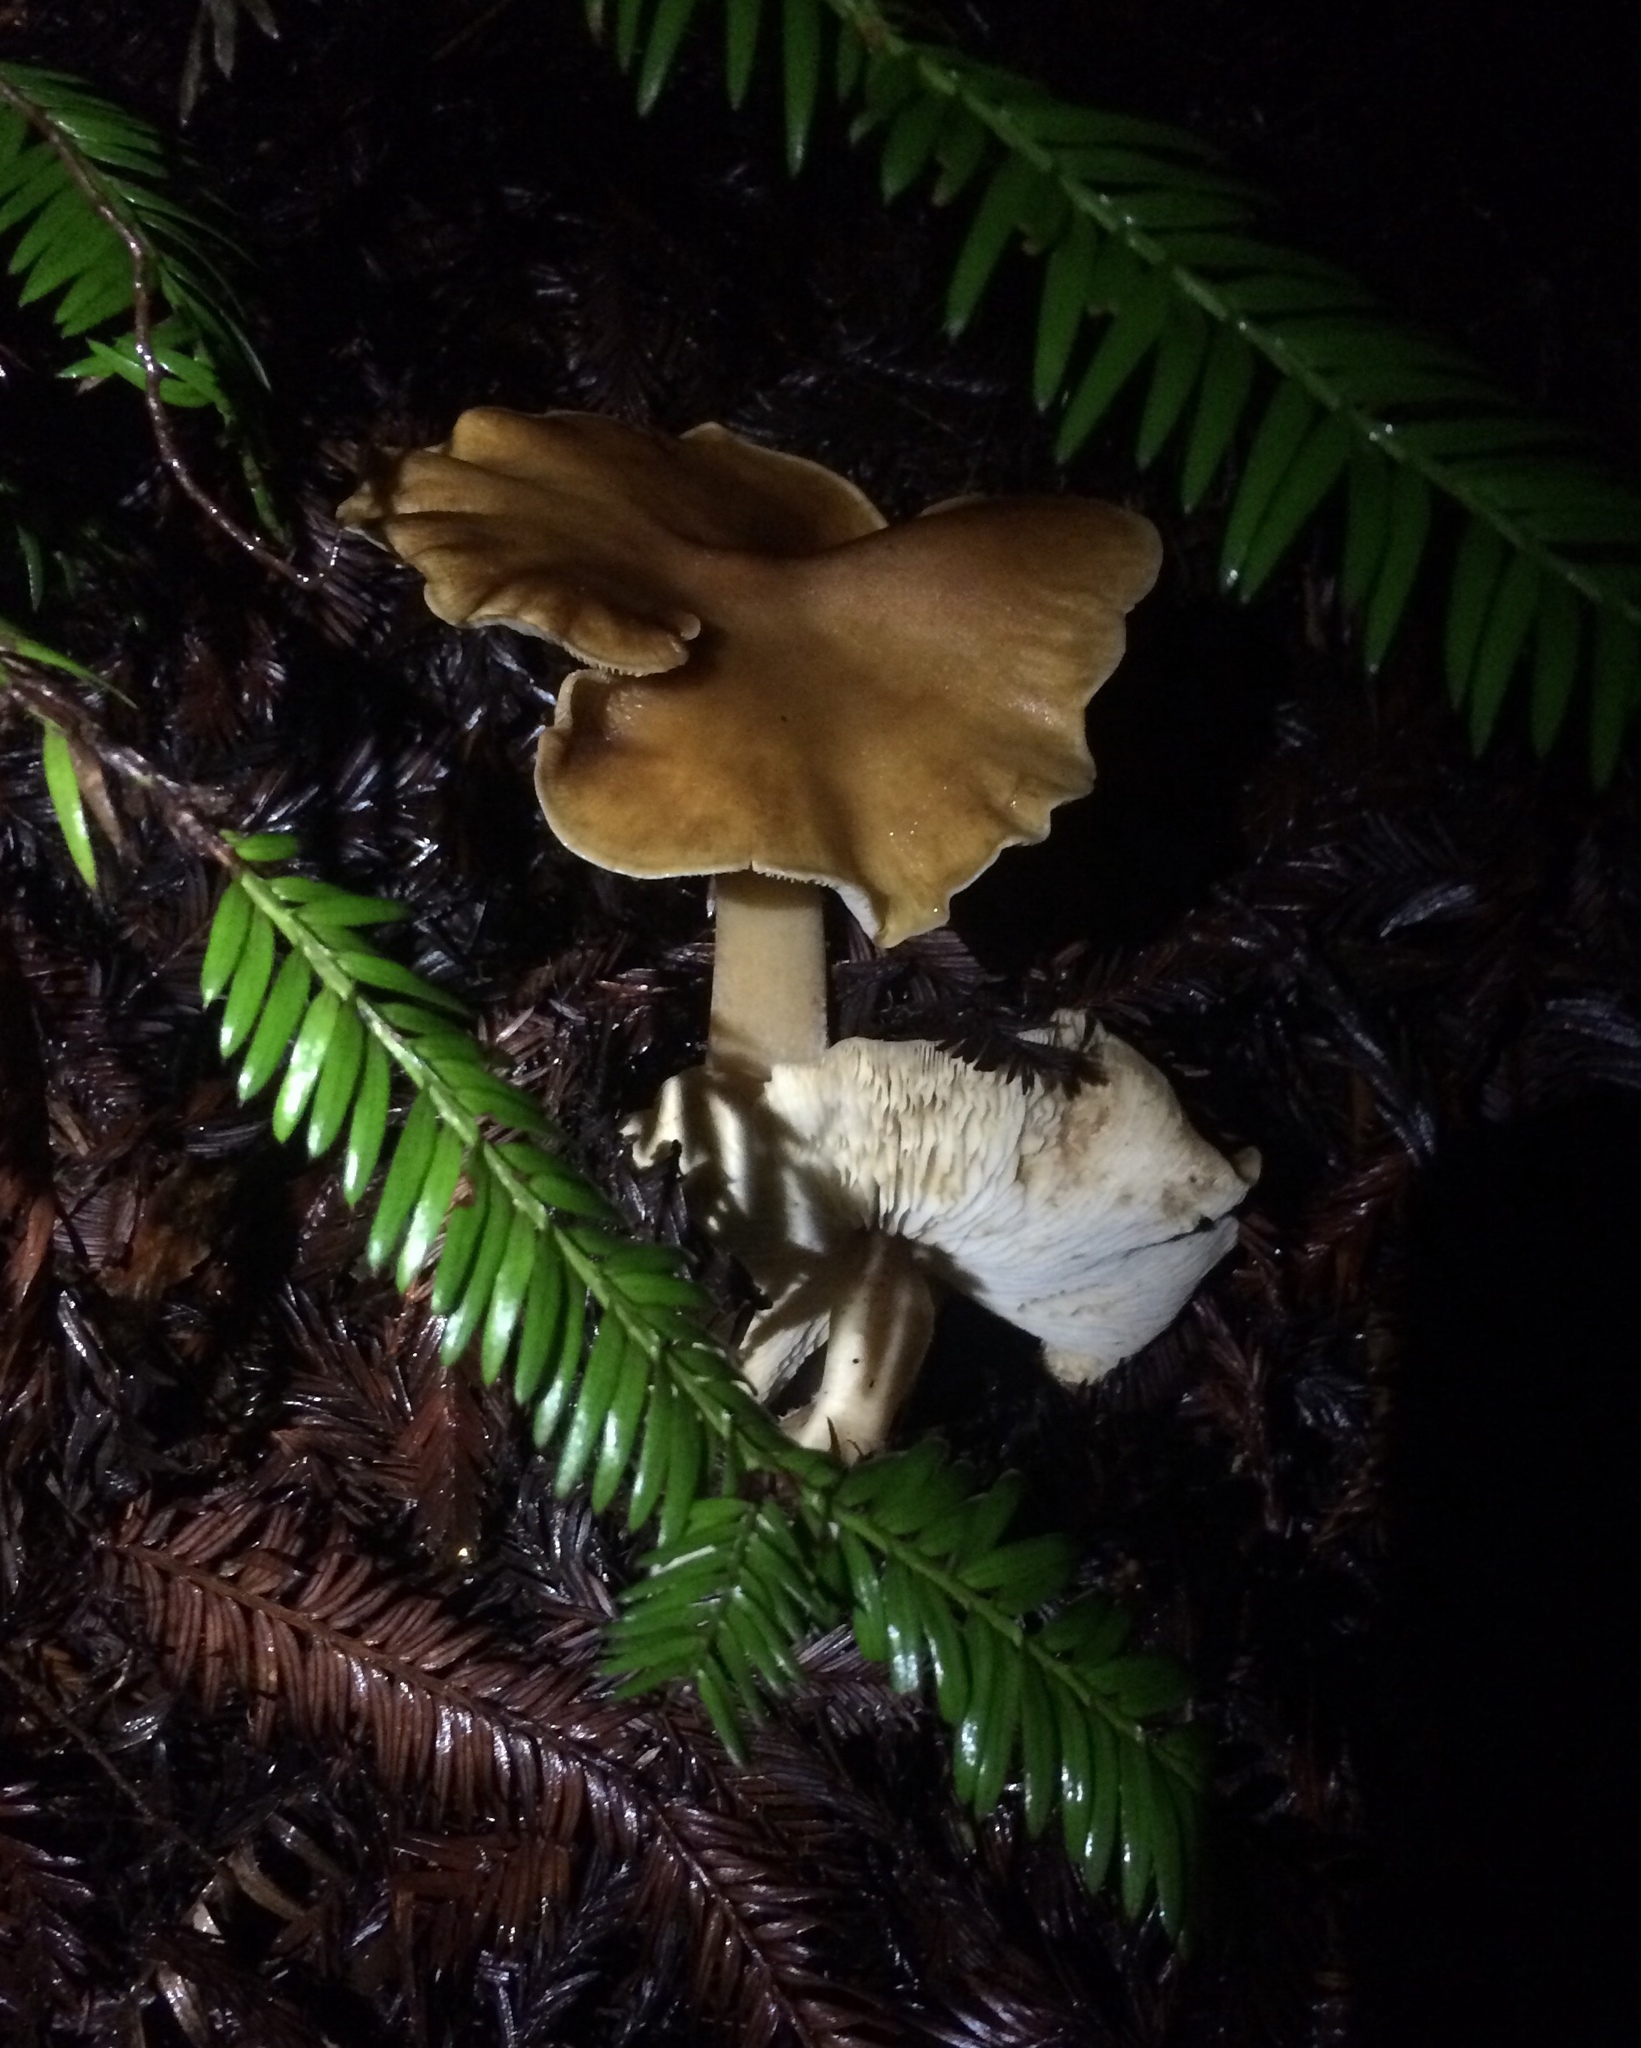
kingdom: Fungi
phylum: Basidiomycota
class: Agaricomycetes
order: Agaricales
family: Tricholomataceae
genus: Caulorhiza
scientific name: Caulorhiza umbonata
